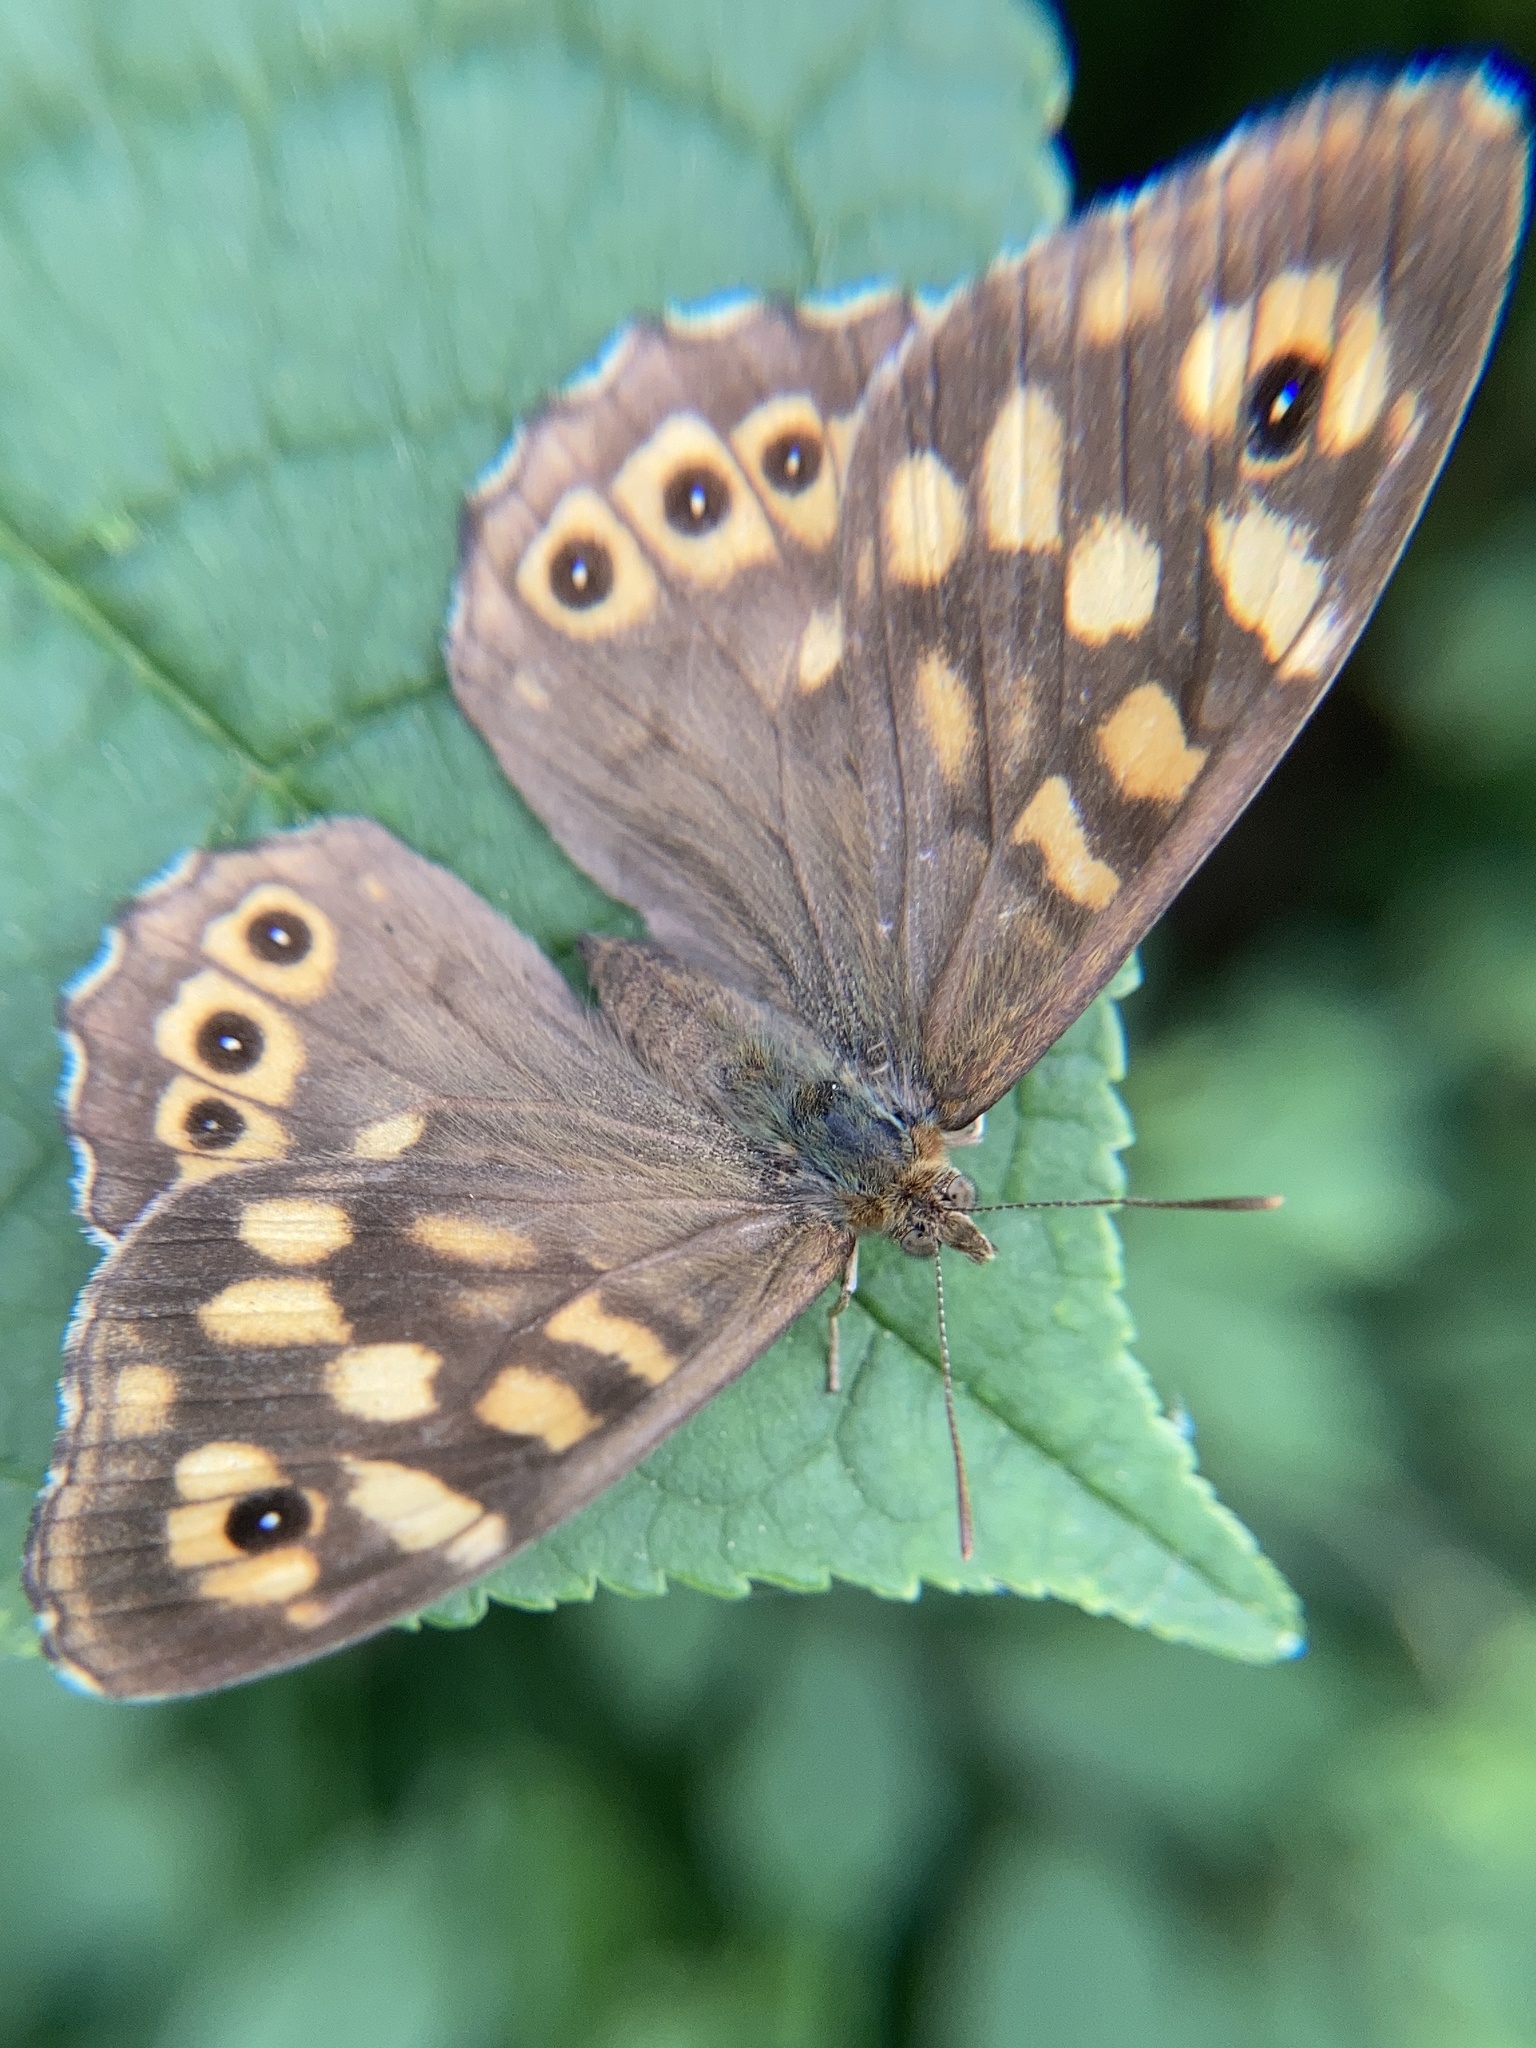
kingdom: Animalia
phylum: Arthropoda
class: Insecta
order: Lepidoptera
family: Nymphalidae
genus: Pararge
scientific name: Pararge aegeria
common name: Speckled wood
